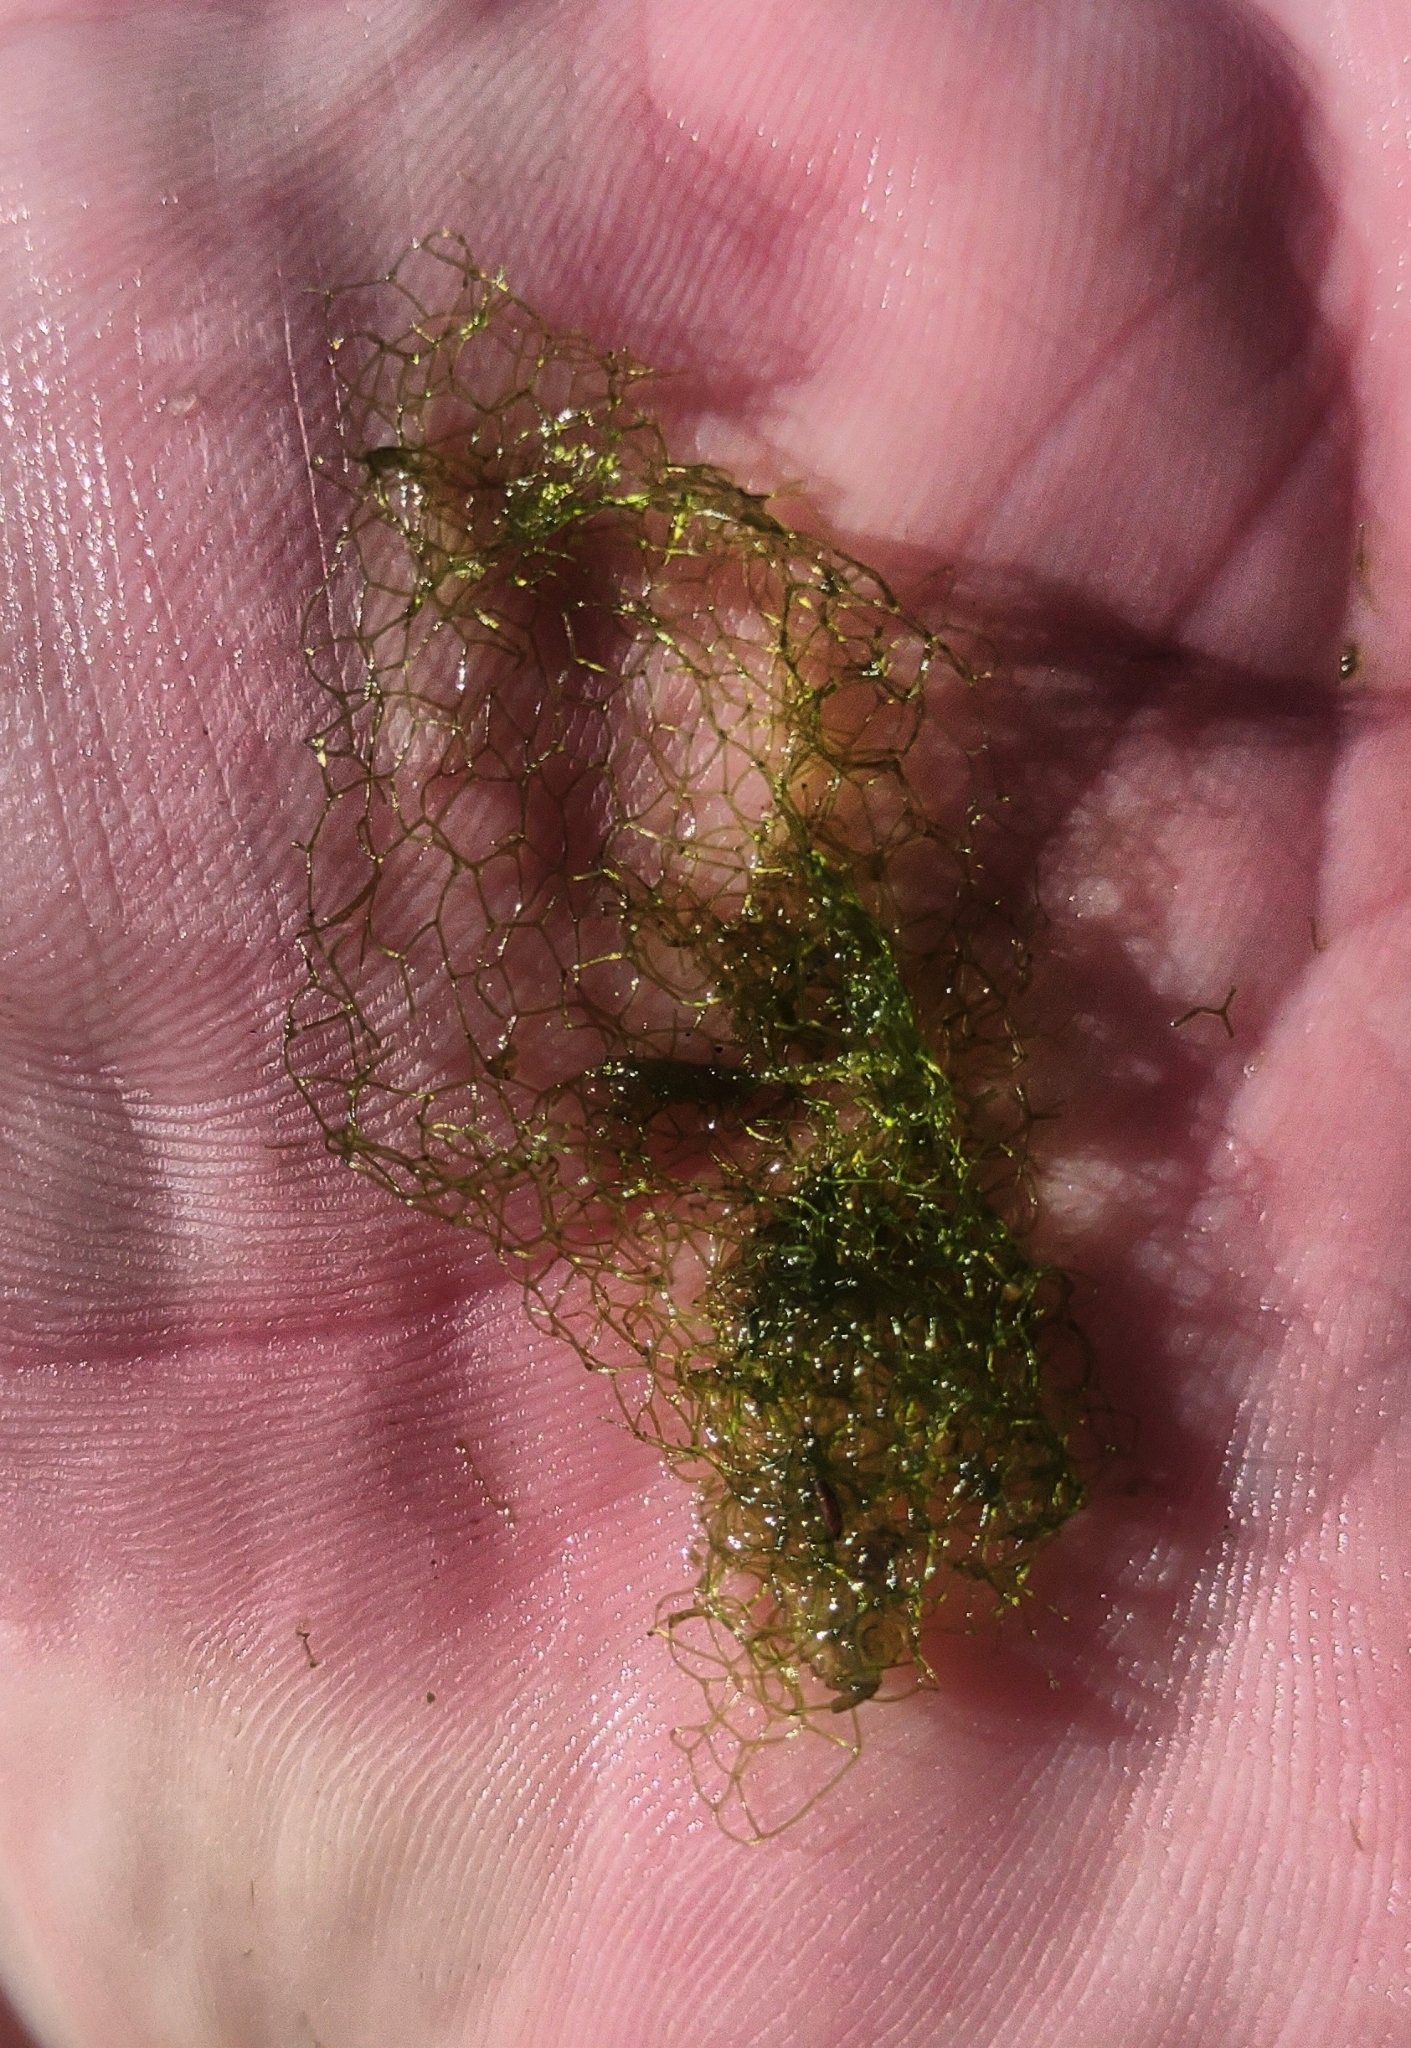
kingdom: Plantae
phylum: Chlorophyta
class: Chlorophyceae
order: Sphaeropleales
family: Hydrodictyaceae
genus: Hydrodictyon
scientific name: Hydrodictyon reticulatum
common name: Water net
